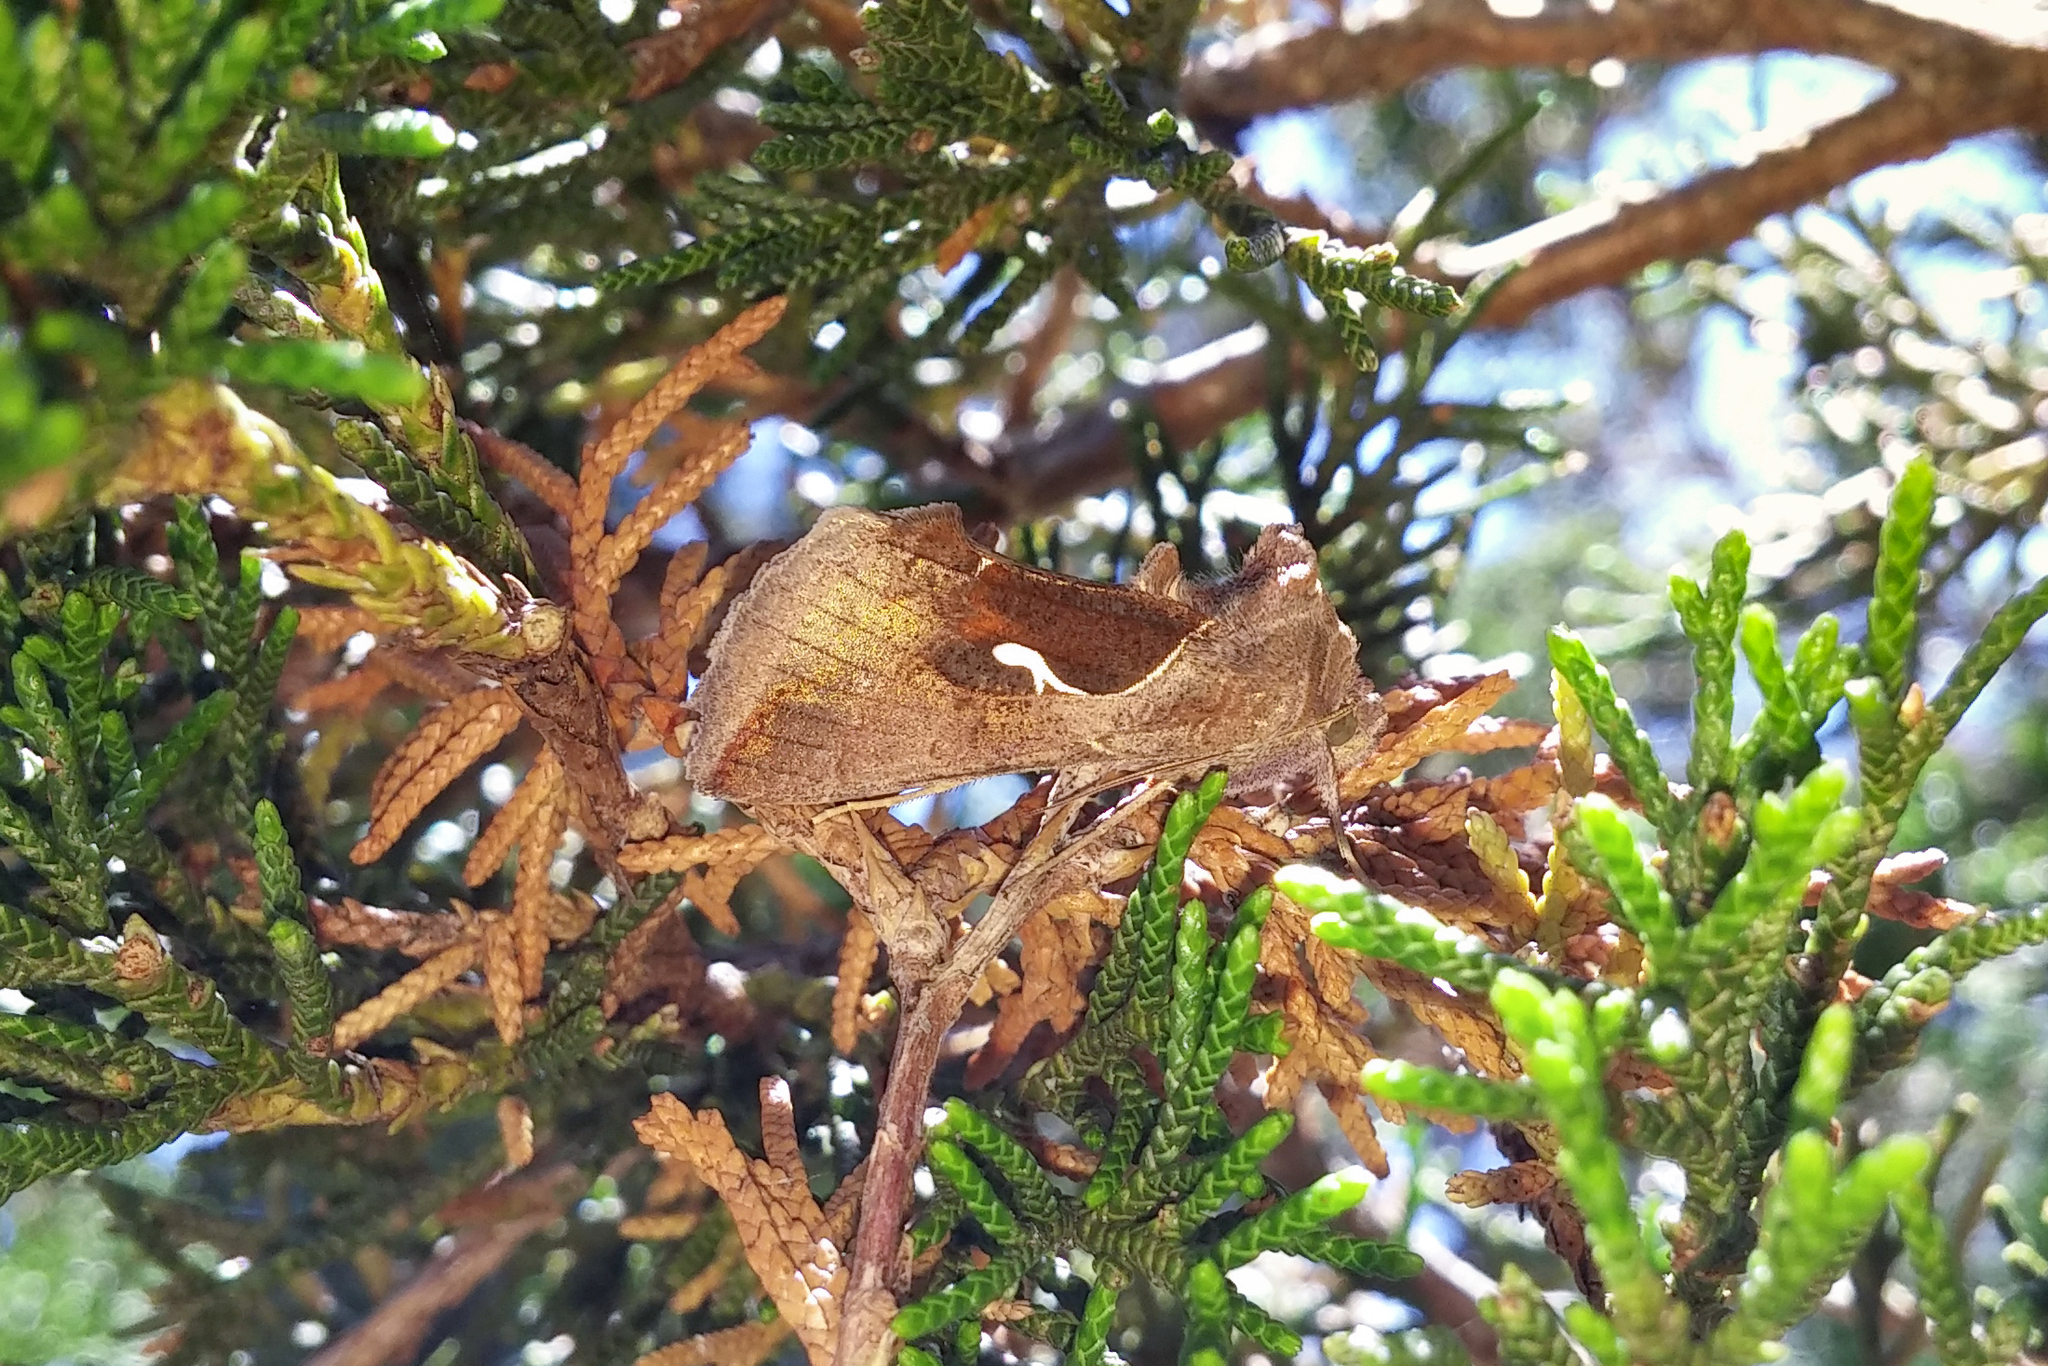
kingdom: Animalia
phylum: Arthropoda
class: Insecta
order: Lepidoptera
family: Noctuidae
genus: Anagrapha
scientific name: Anagrapha falcifera
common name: Celery looper
